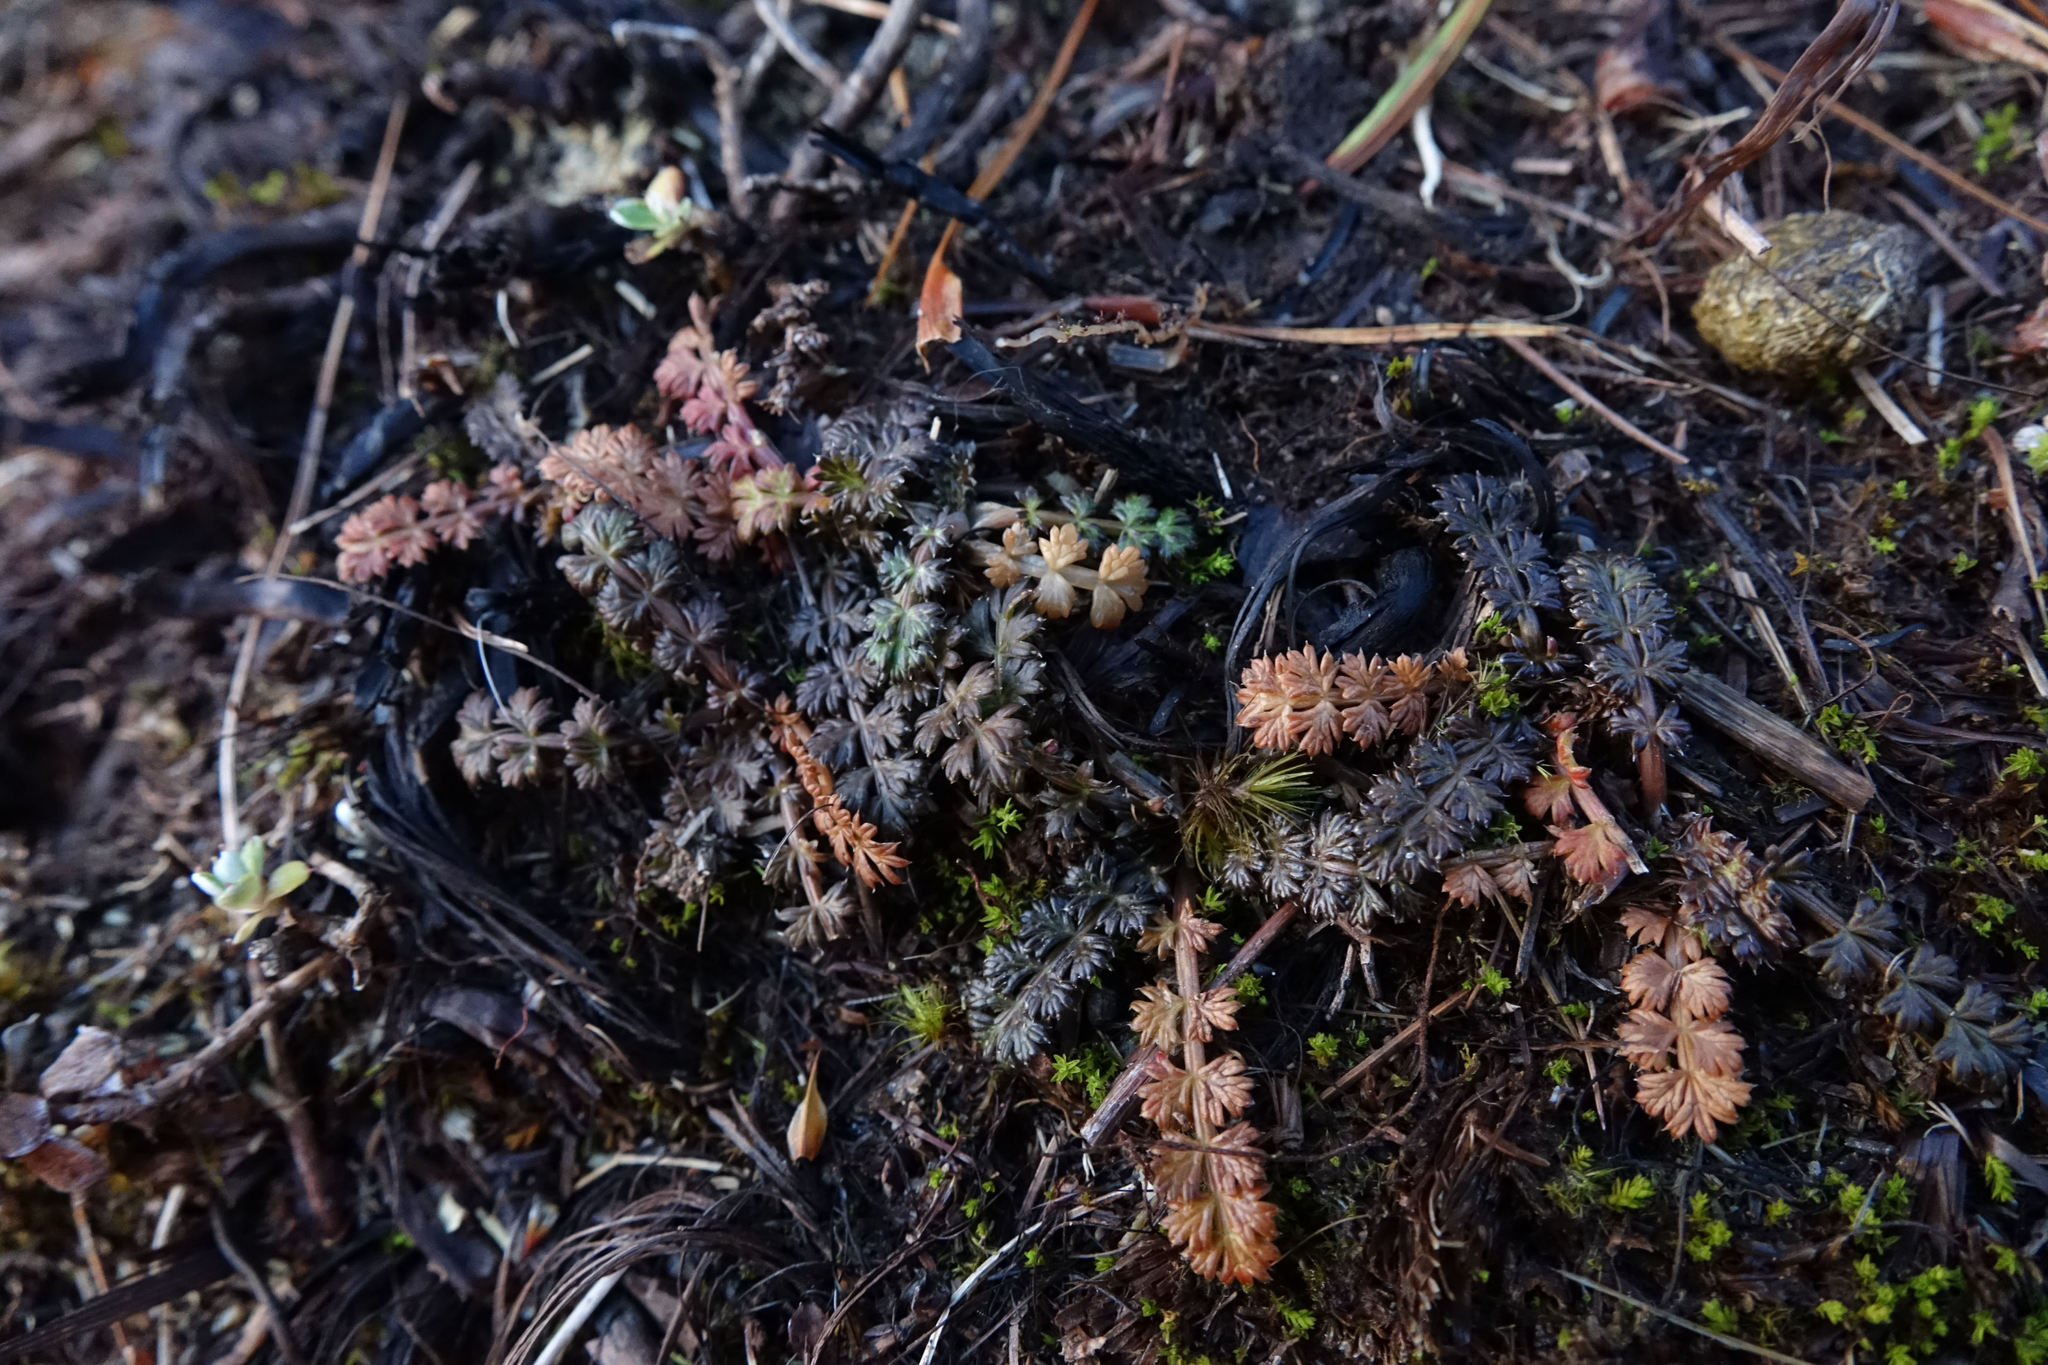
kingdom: Plantae
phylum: Tracheophyta
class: Magnoliopsida
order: Apiales
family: Apiaceae
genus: Anisotome
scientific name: Anisotome aromatica
